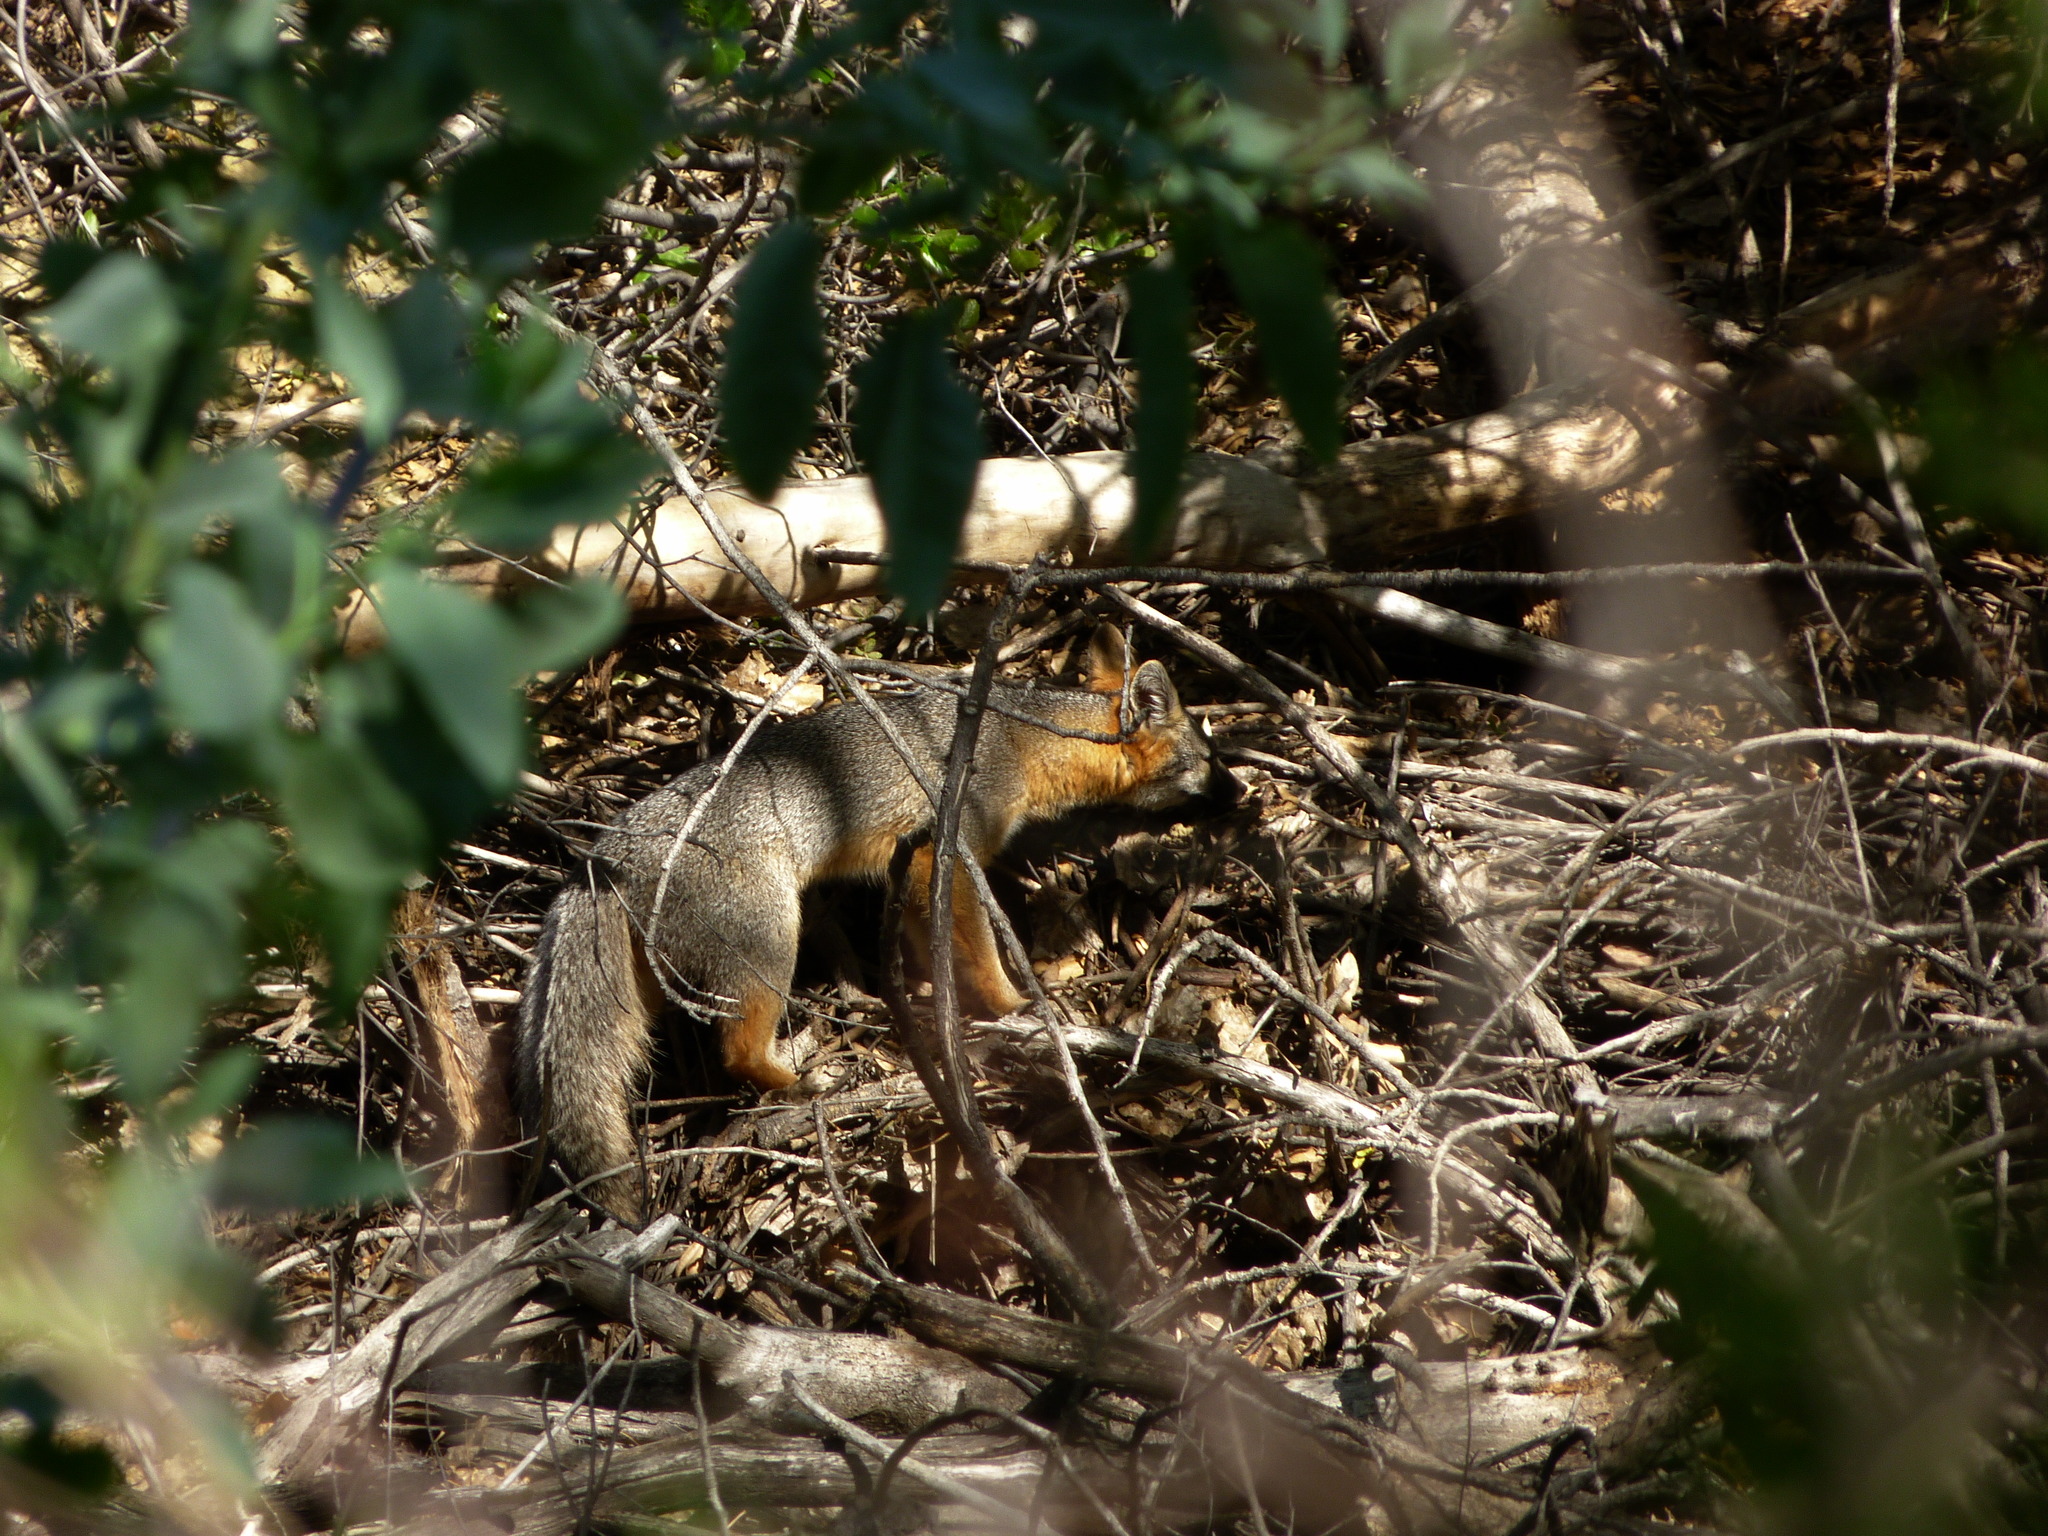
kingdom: Animalia
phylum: Chordata
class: Mammalia
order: Carnivora
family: Canidae
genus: Urocyon
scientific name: Urocyon cinereoargenteus
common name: Gray fox
